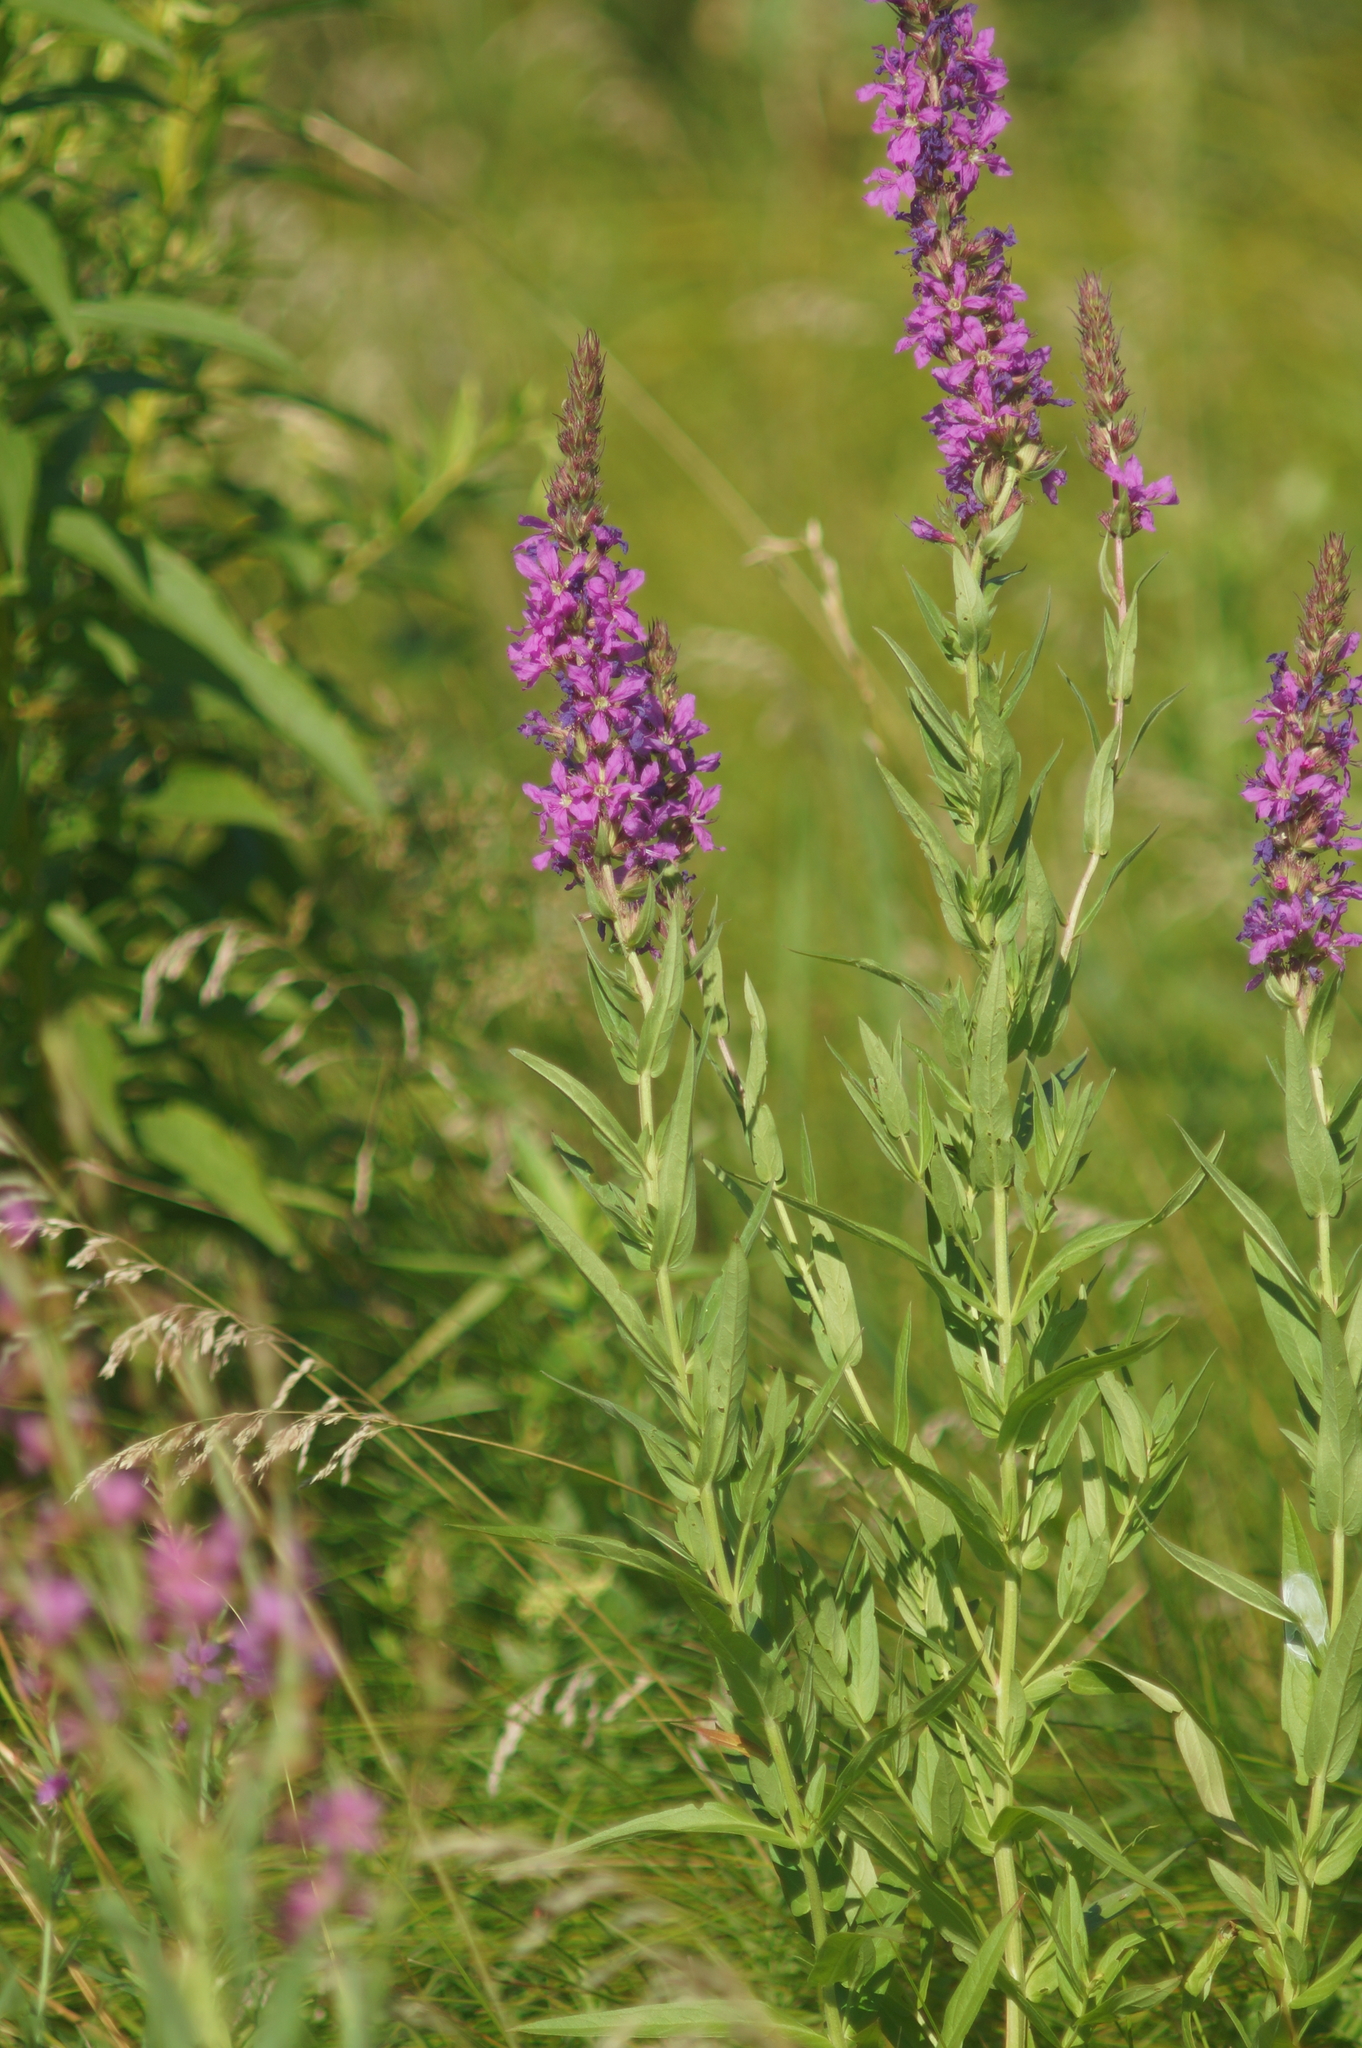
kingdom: Plantae
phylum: Tracheophyta
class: Magnoliopsida
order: Myrtales
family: Lythraceae
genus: Lythrum
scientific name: Lythrum salicaria
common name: Purple loosestrife
